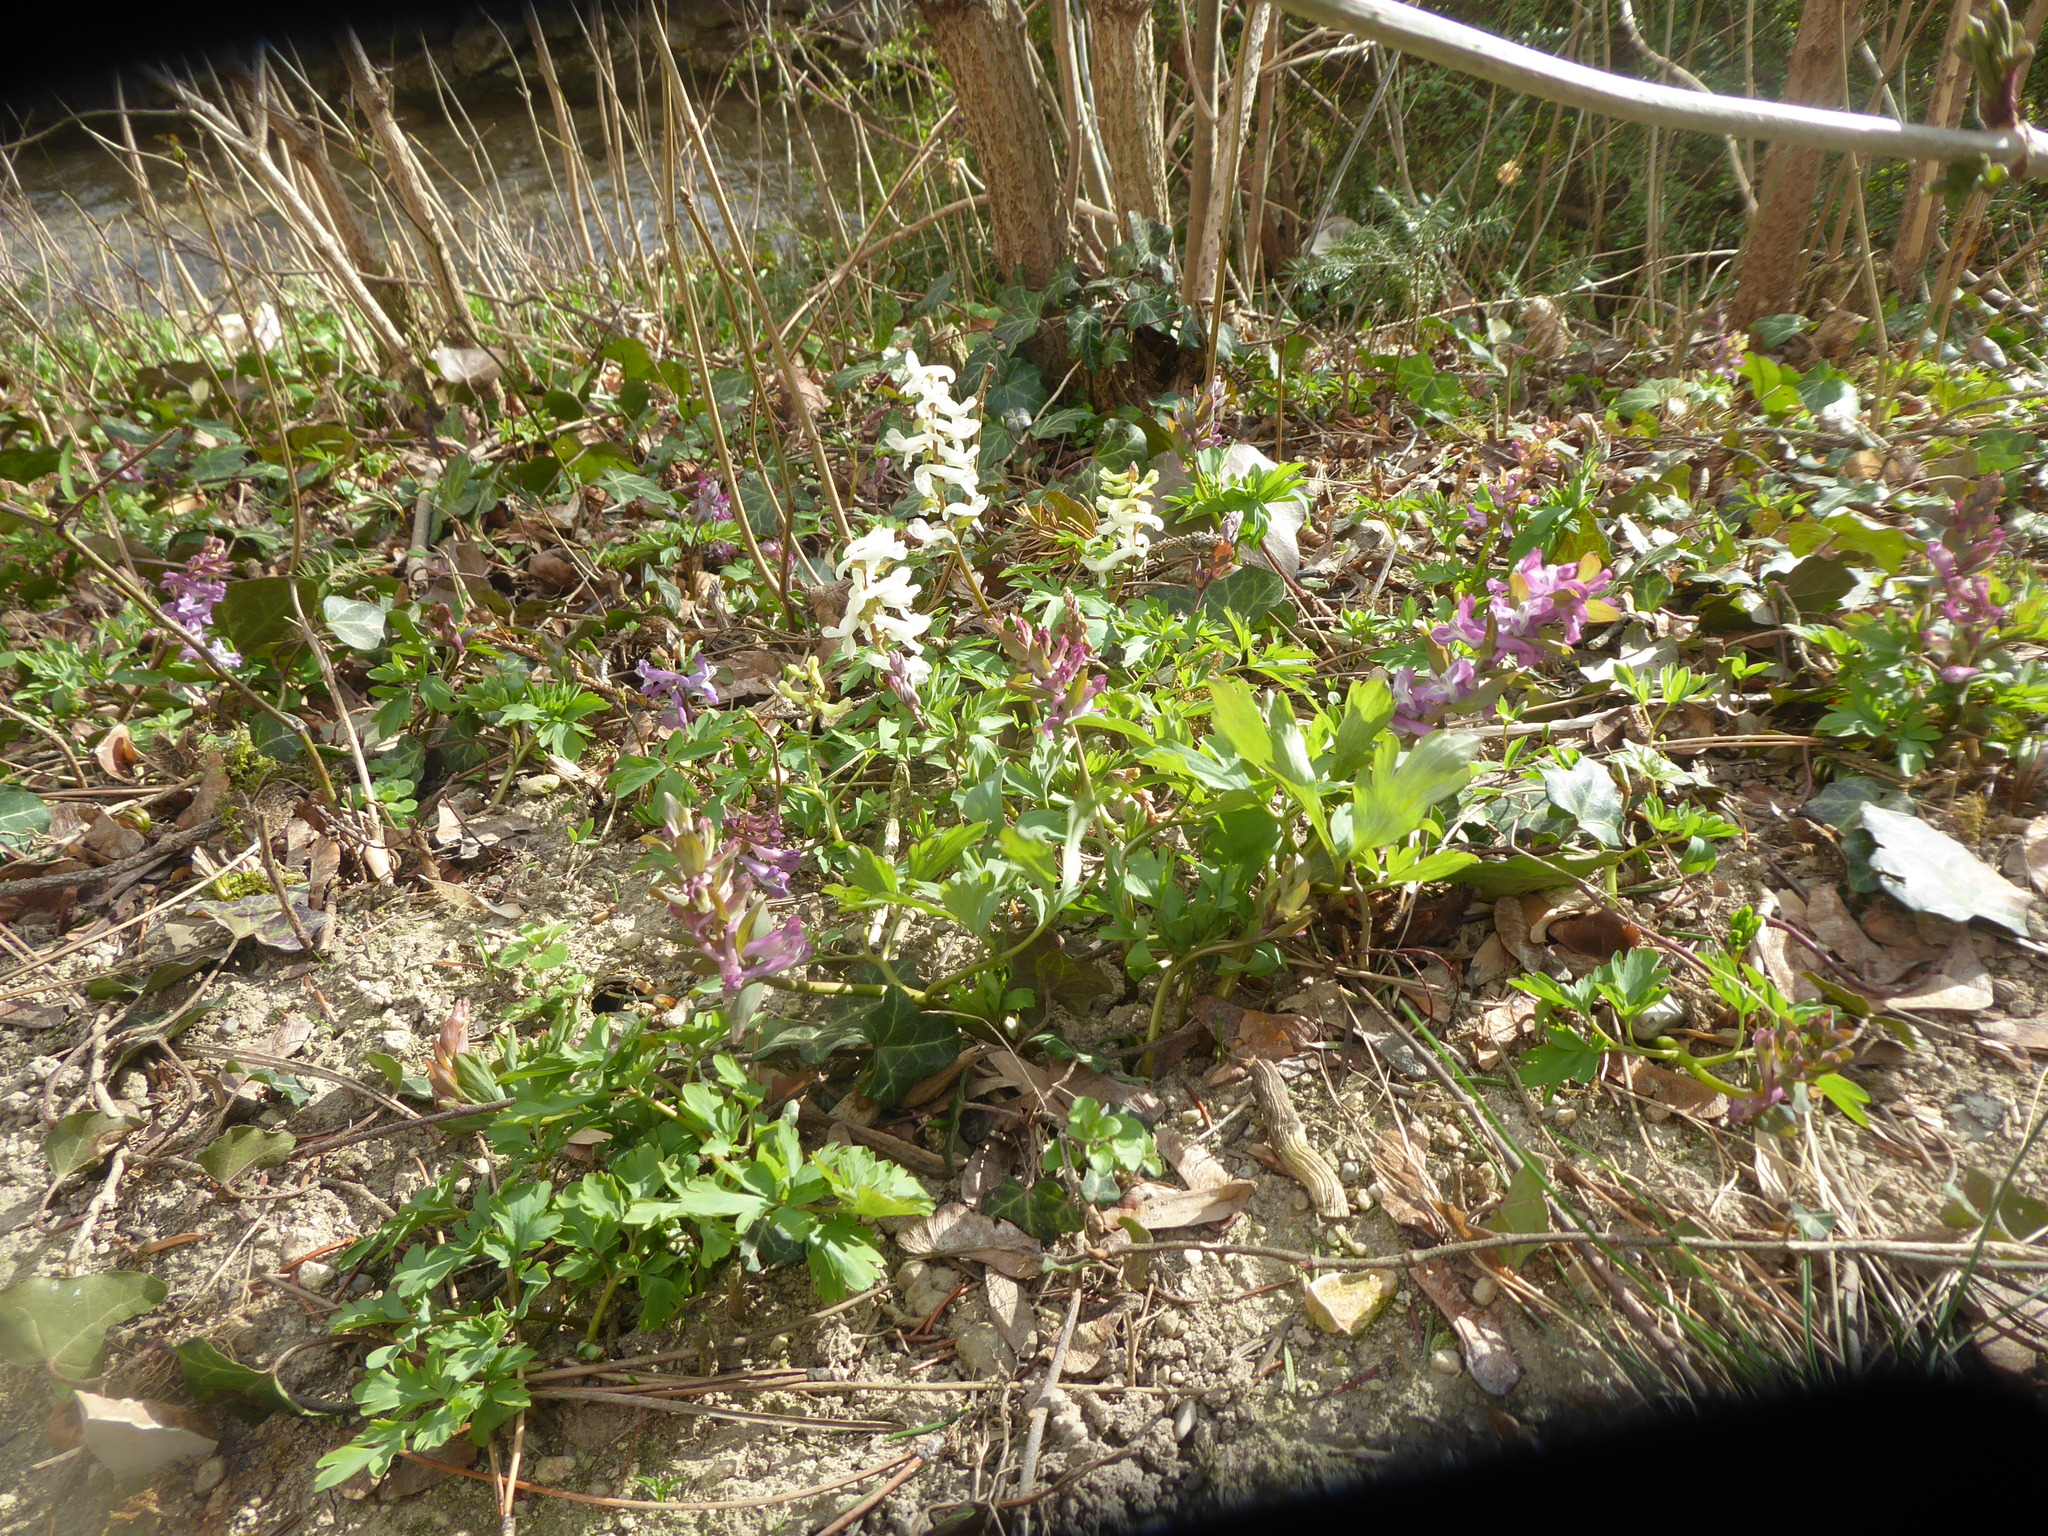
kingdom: Plantae
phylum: Tracheophyta
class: Magnoliopsida
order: Ranunculales
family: Papaveraceae
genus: Corydalis
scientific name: Corydalis cava
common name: Hollowroot
